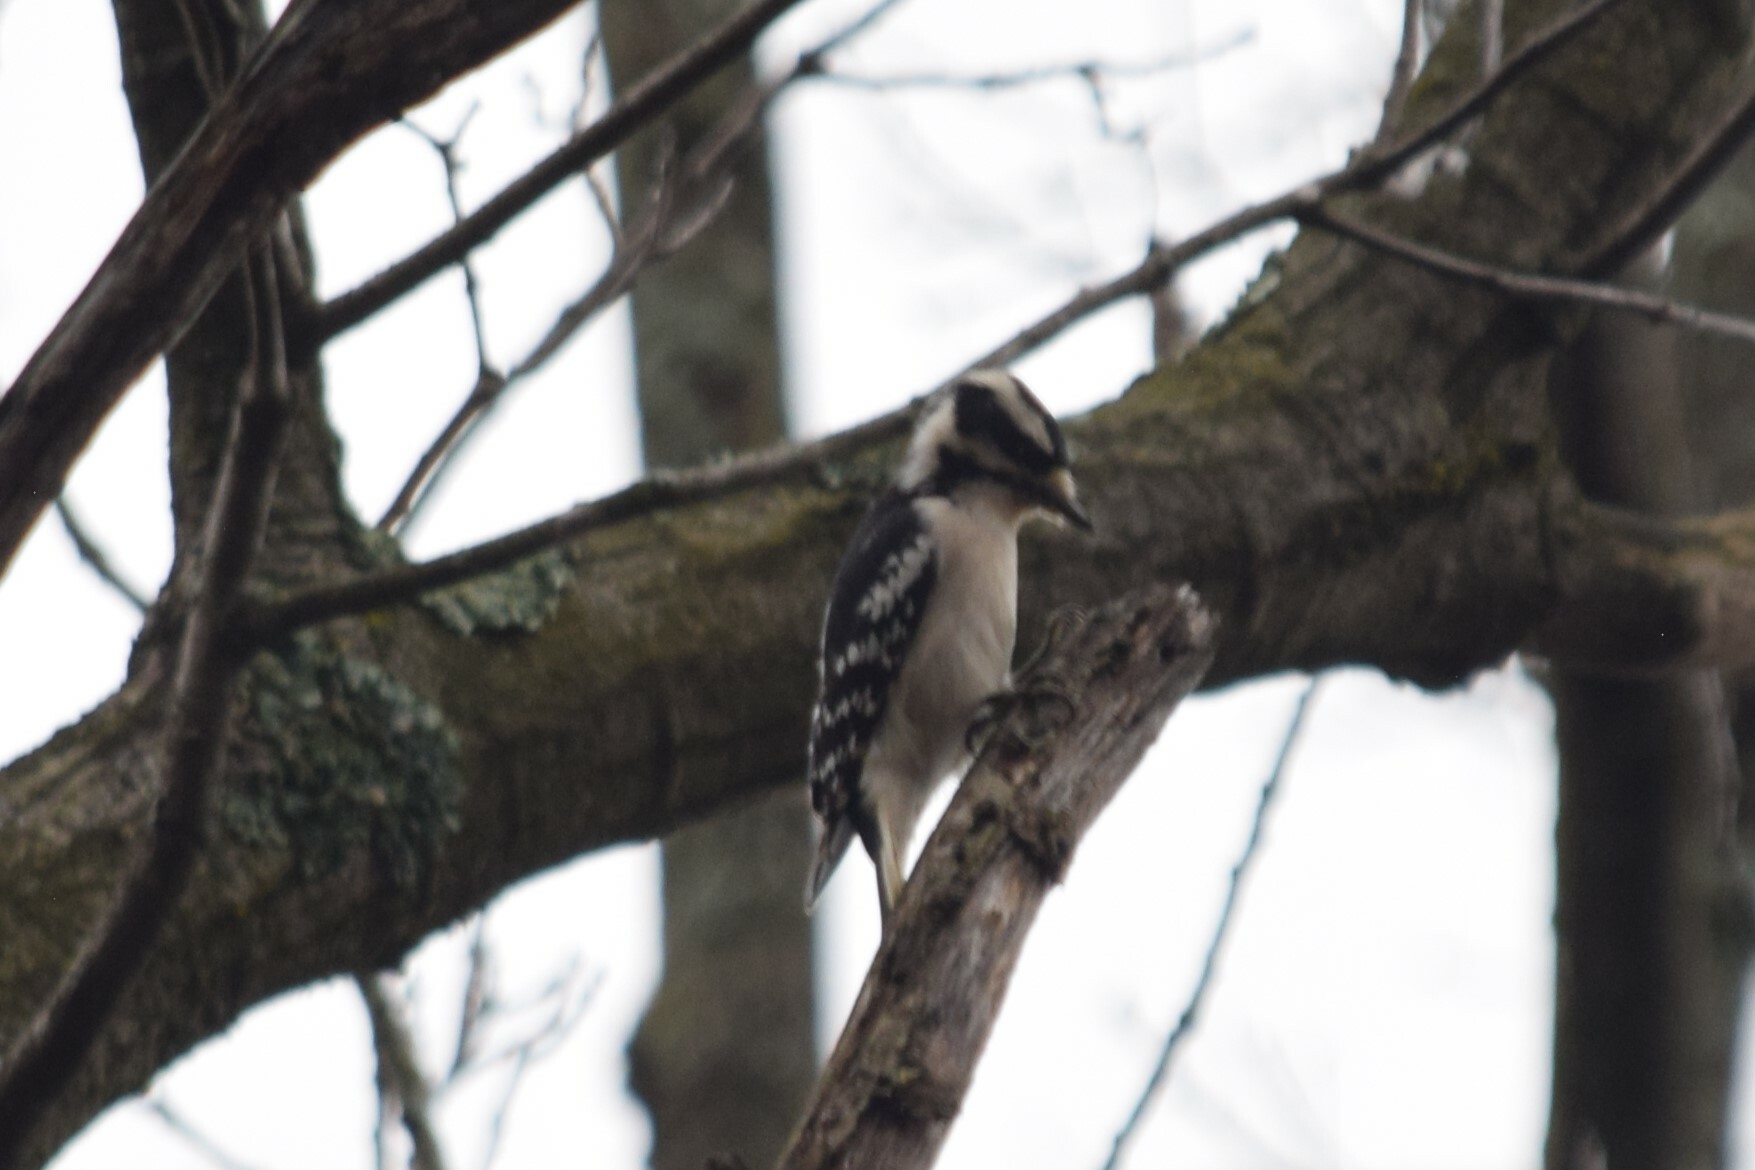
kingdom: Animalia
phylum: Chordata
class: Aves
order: Piciformes
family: Picidae
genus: Dryobates
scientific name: Dryobates pubescens
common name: Downy woodpecker
